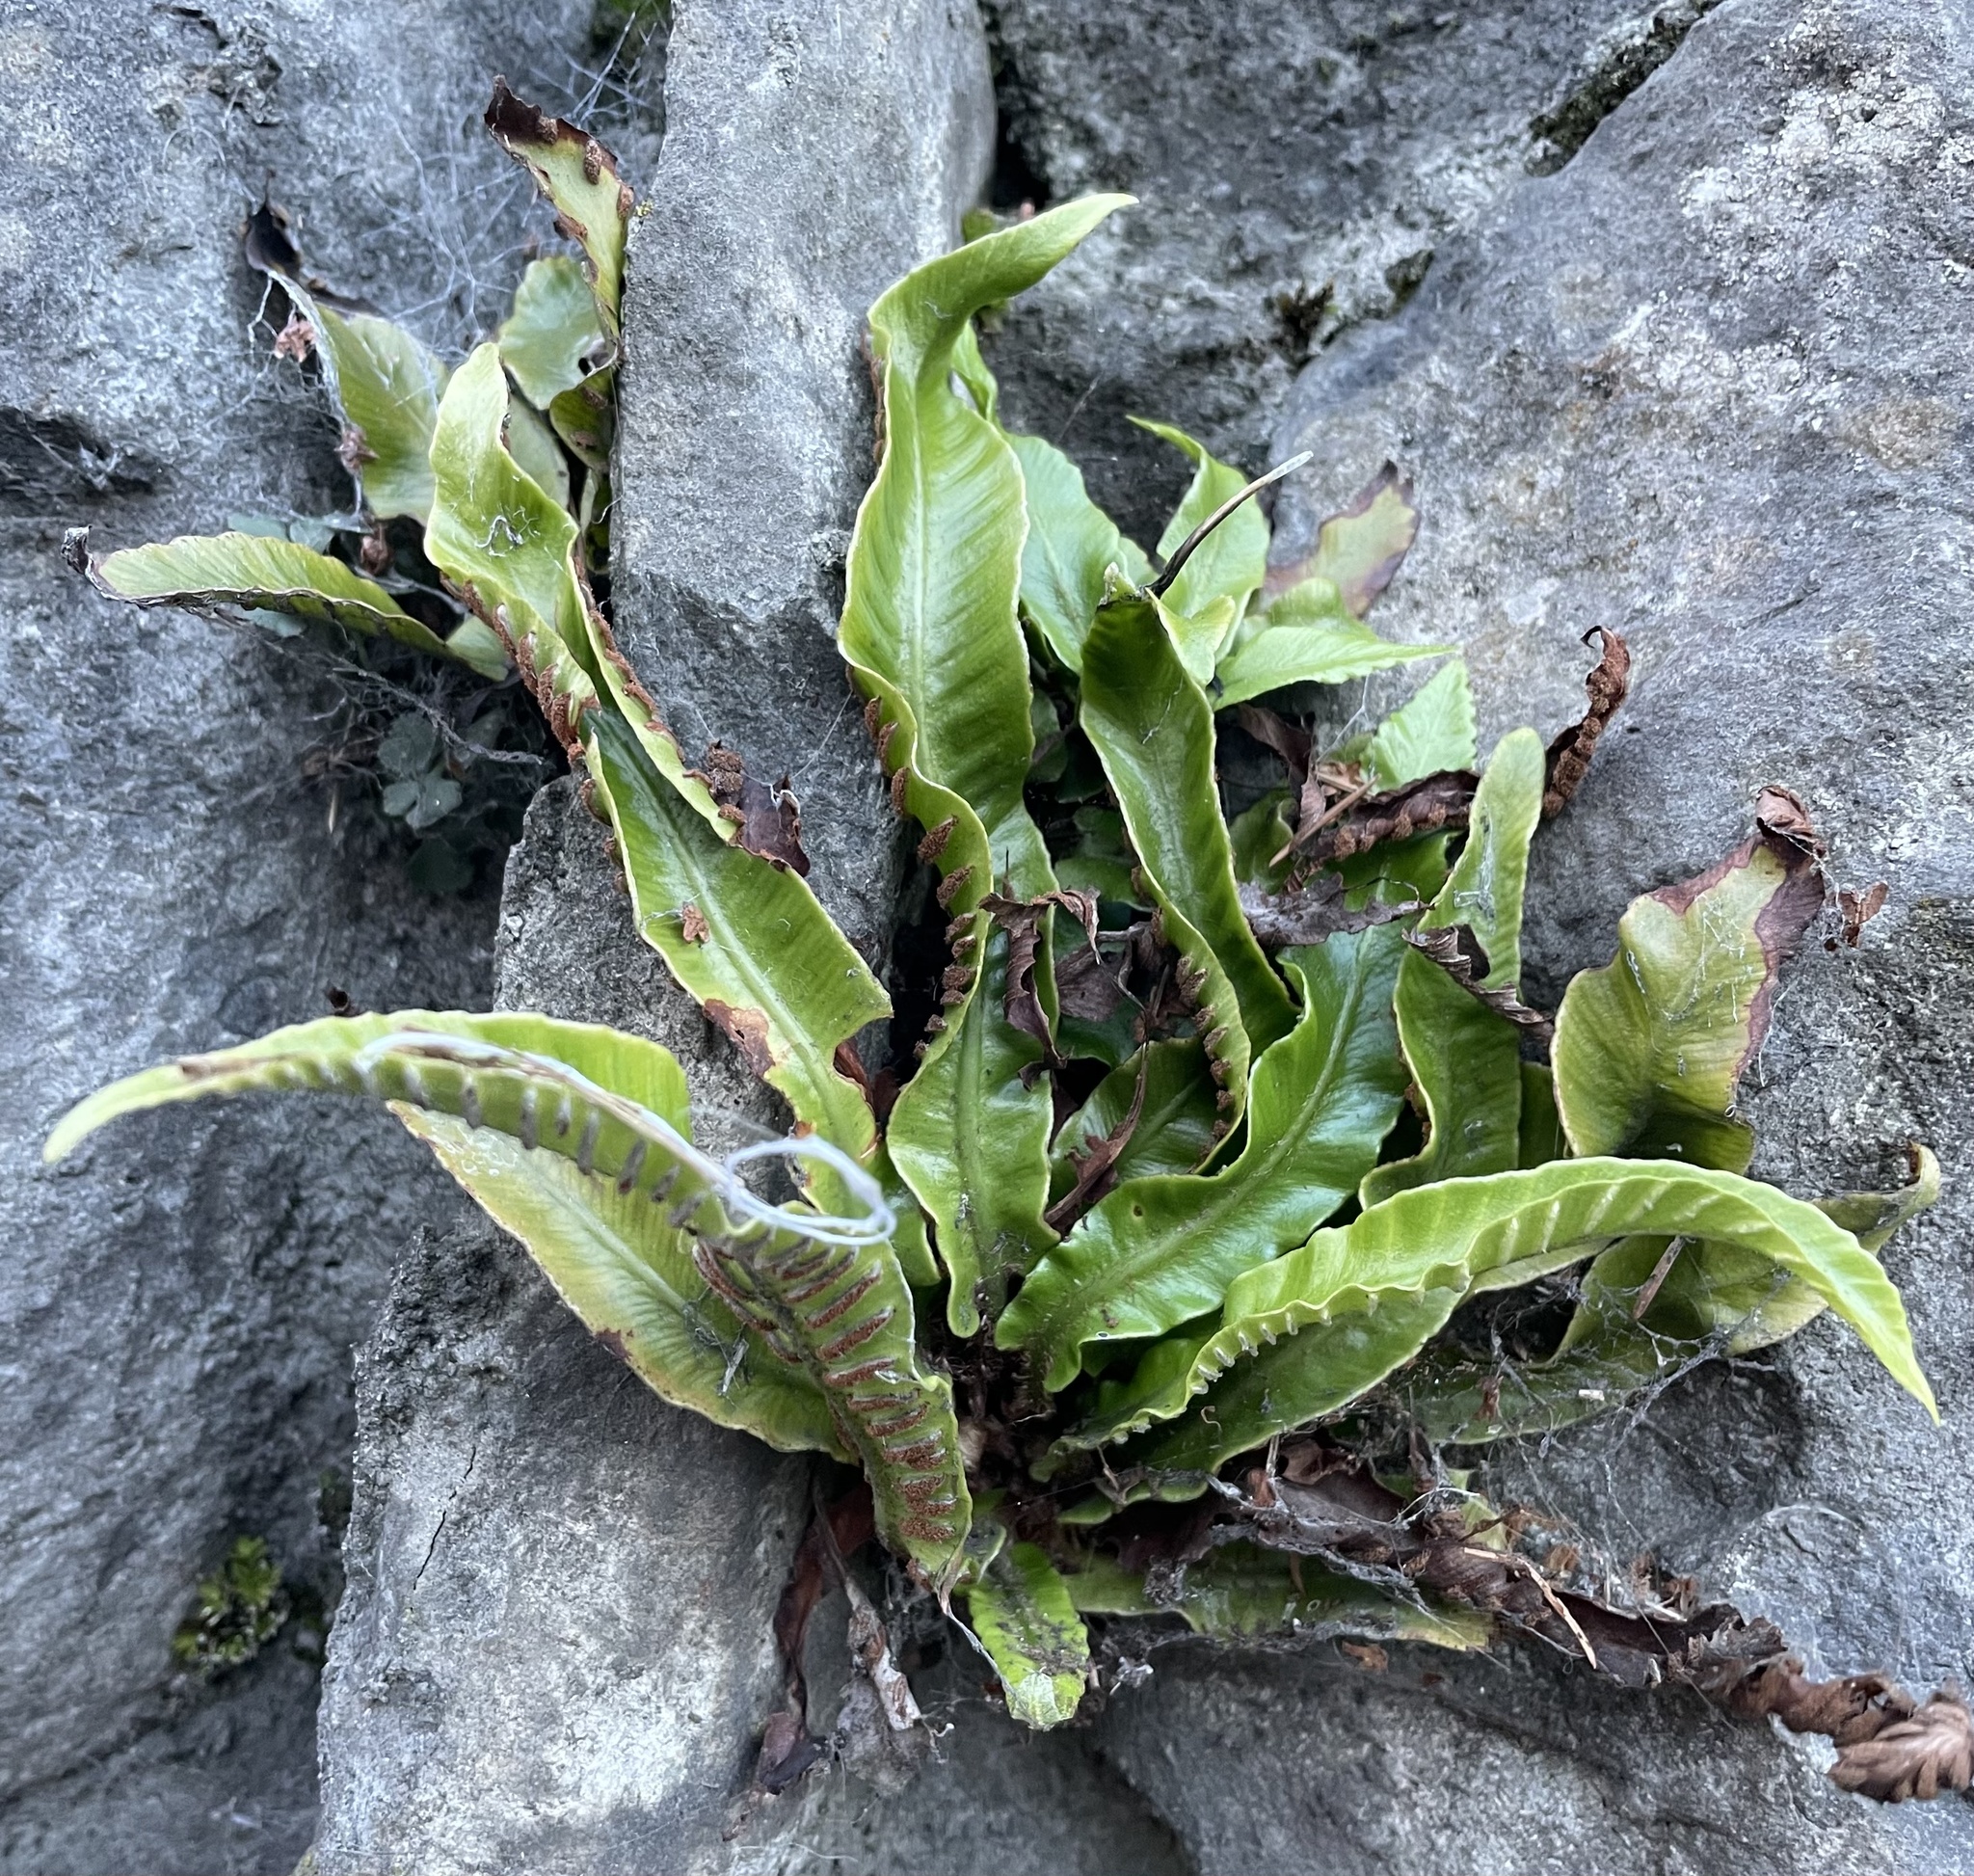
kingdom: Plantae
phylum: Tracheophyta
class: Polypodiopsida
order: Polypodiales
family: Aspleniaceae
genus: Asplenium
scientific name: Asplenium scolopendrium
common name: Hart's-tongue fern
